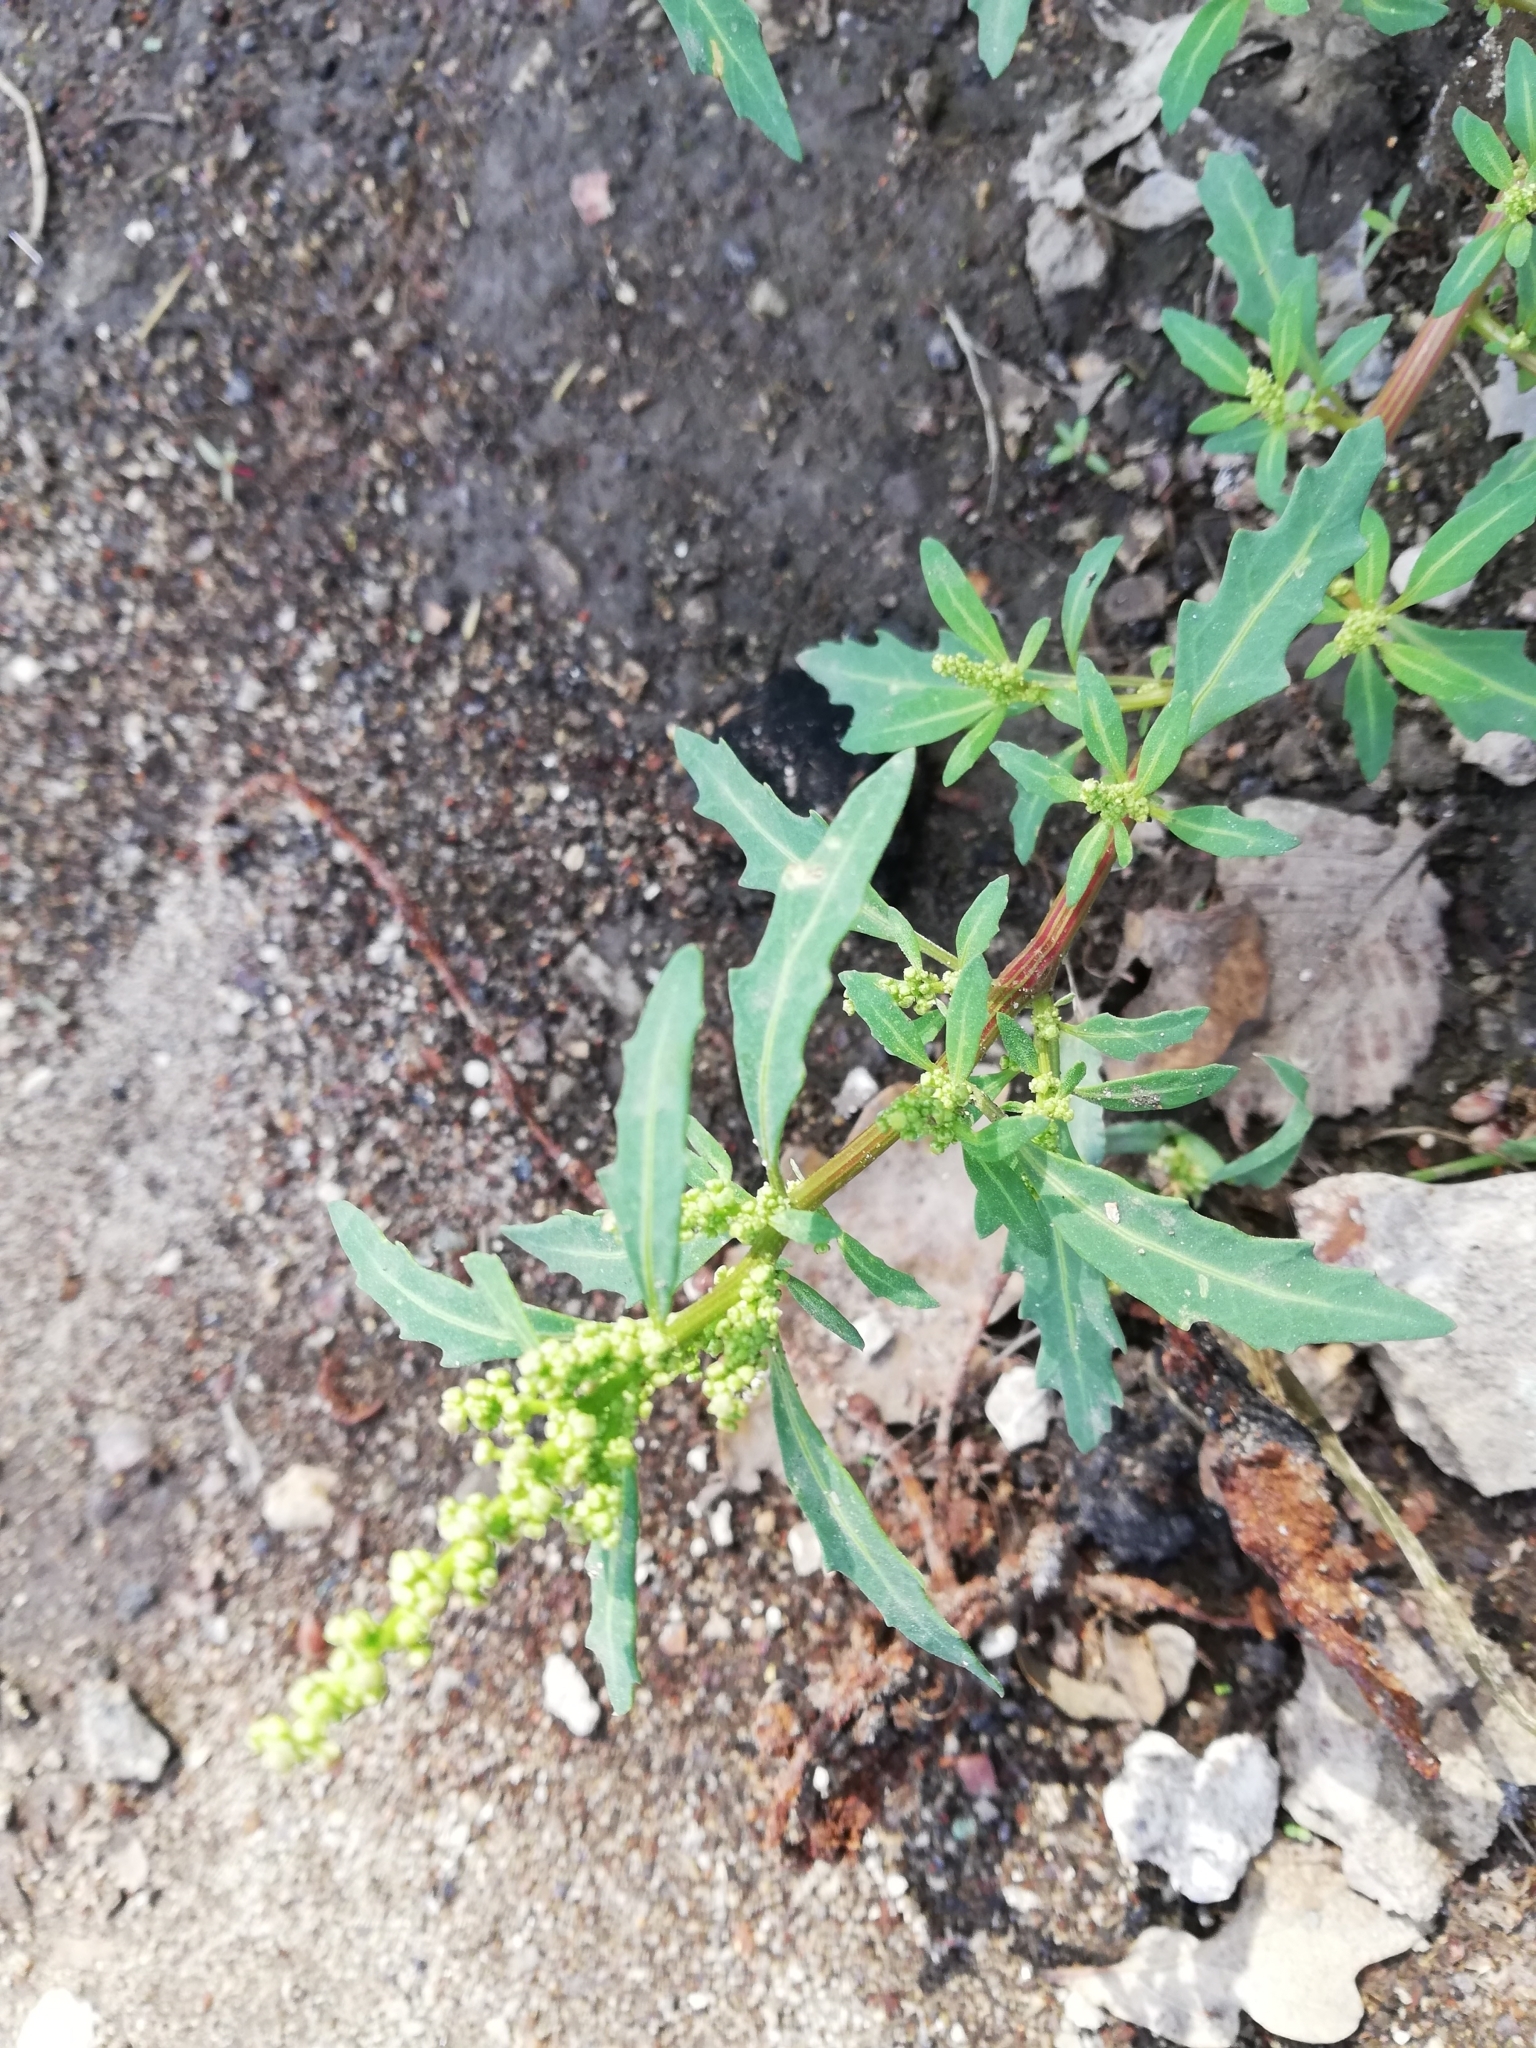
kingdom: Plantae
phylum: Tracheophyta
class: Magnoliopsida
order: Caryophyllales
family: Amaranthaceae
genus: Oxybasis
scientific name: Oxybasis glauca
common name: Glaucous goosefoot
